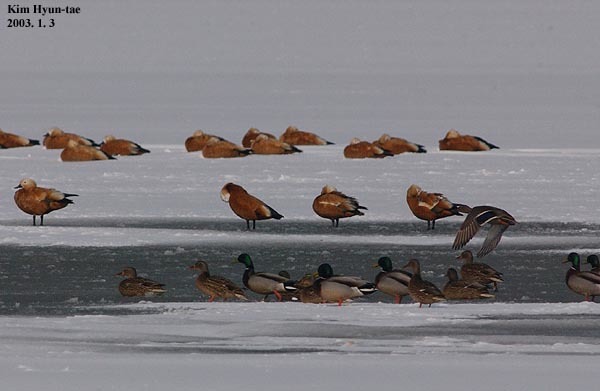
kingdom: Animalia
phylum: Chordata
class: Aves
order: Anseriformes
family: Anatidae
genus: Tadorna
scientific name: Tadorna ferruginea
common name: Ruddy shelduck
